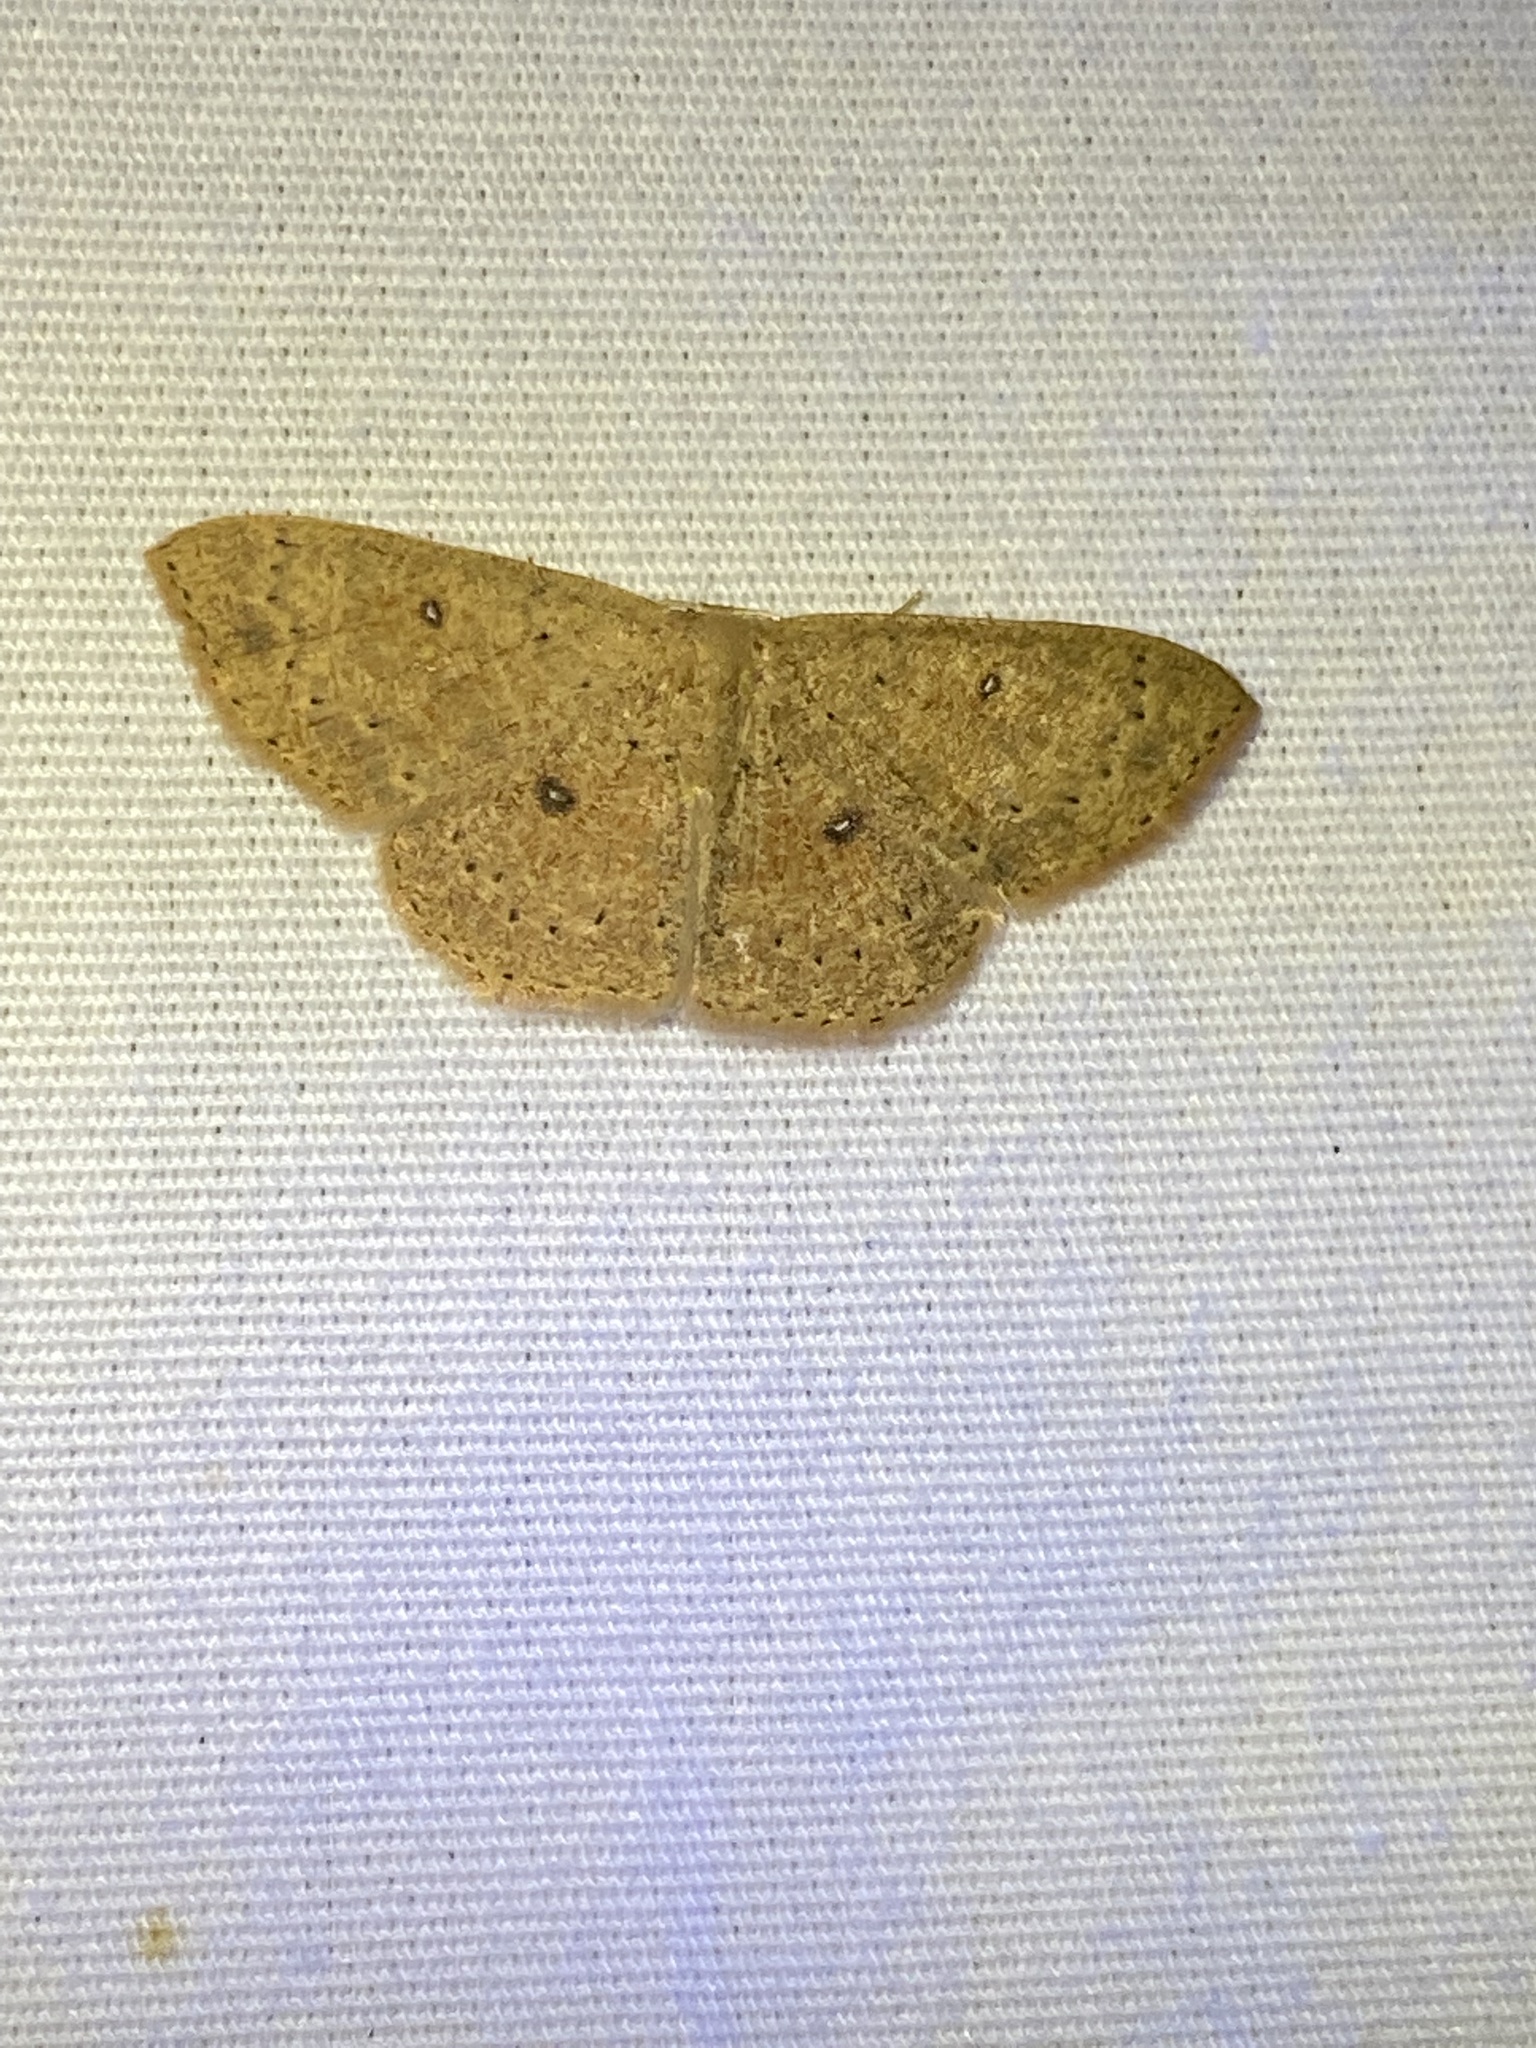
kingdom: Animalia
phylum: Arthropoda
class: Insecta
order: Lepidoptera
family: Geometridae
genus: Cyclophora
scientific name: Cyclophora packardi
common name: Packard's wave
